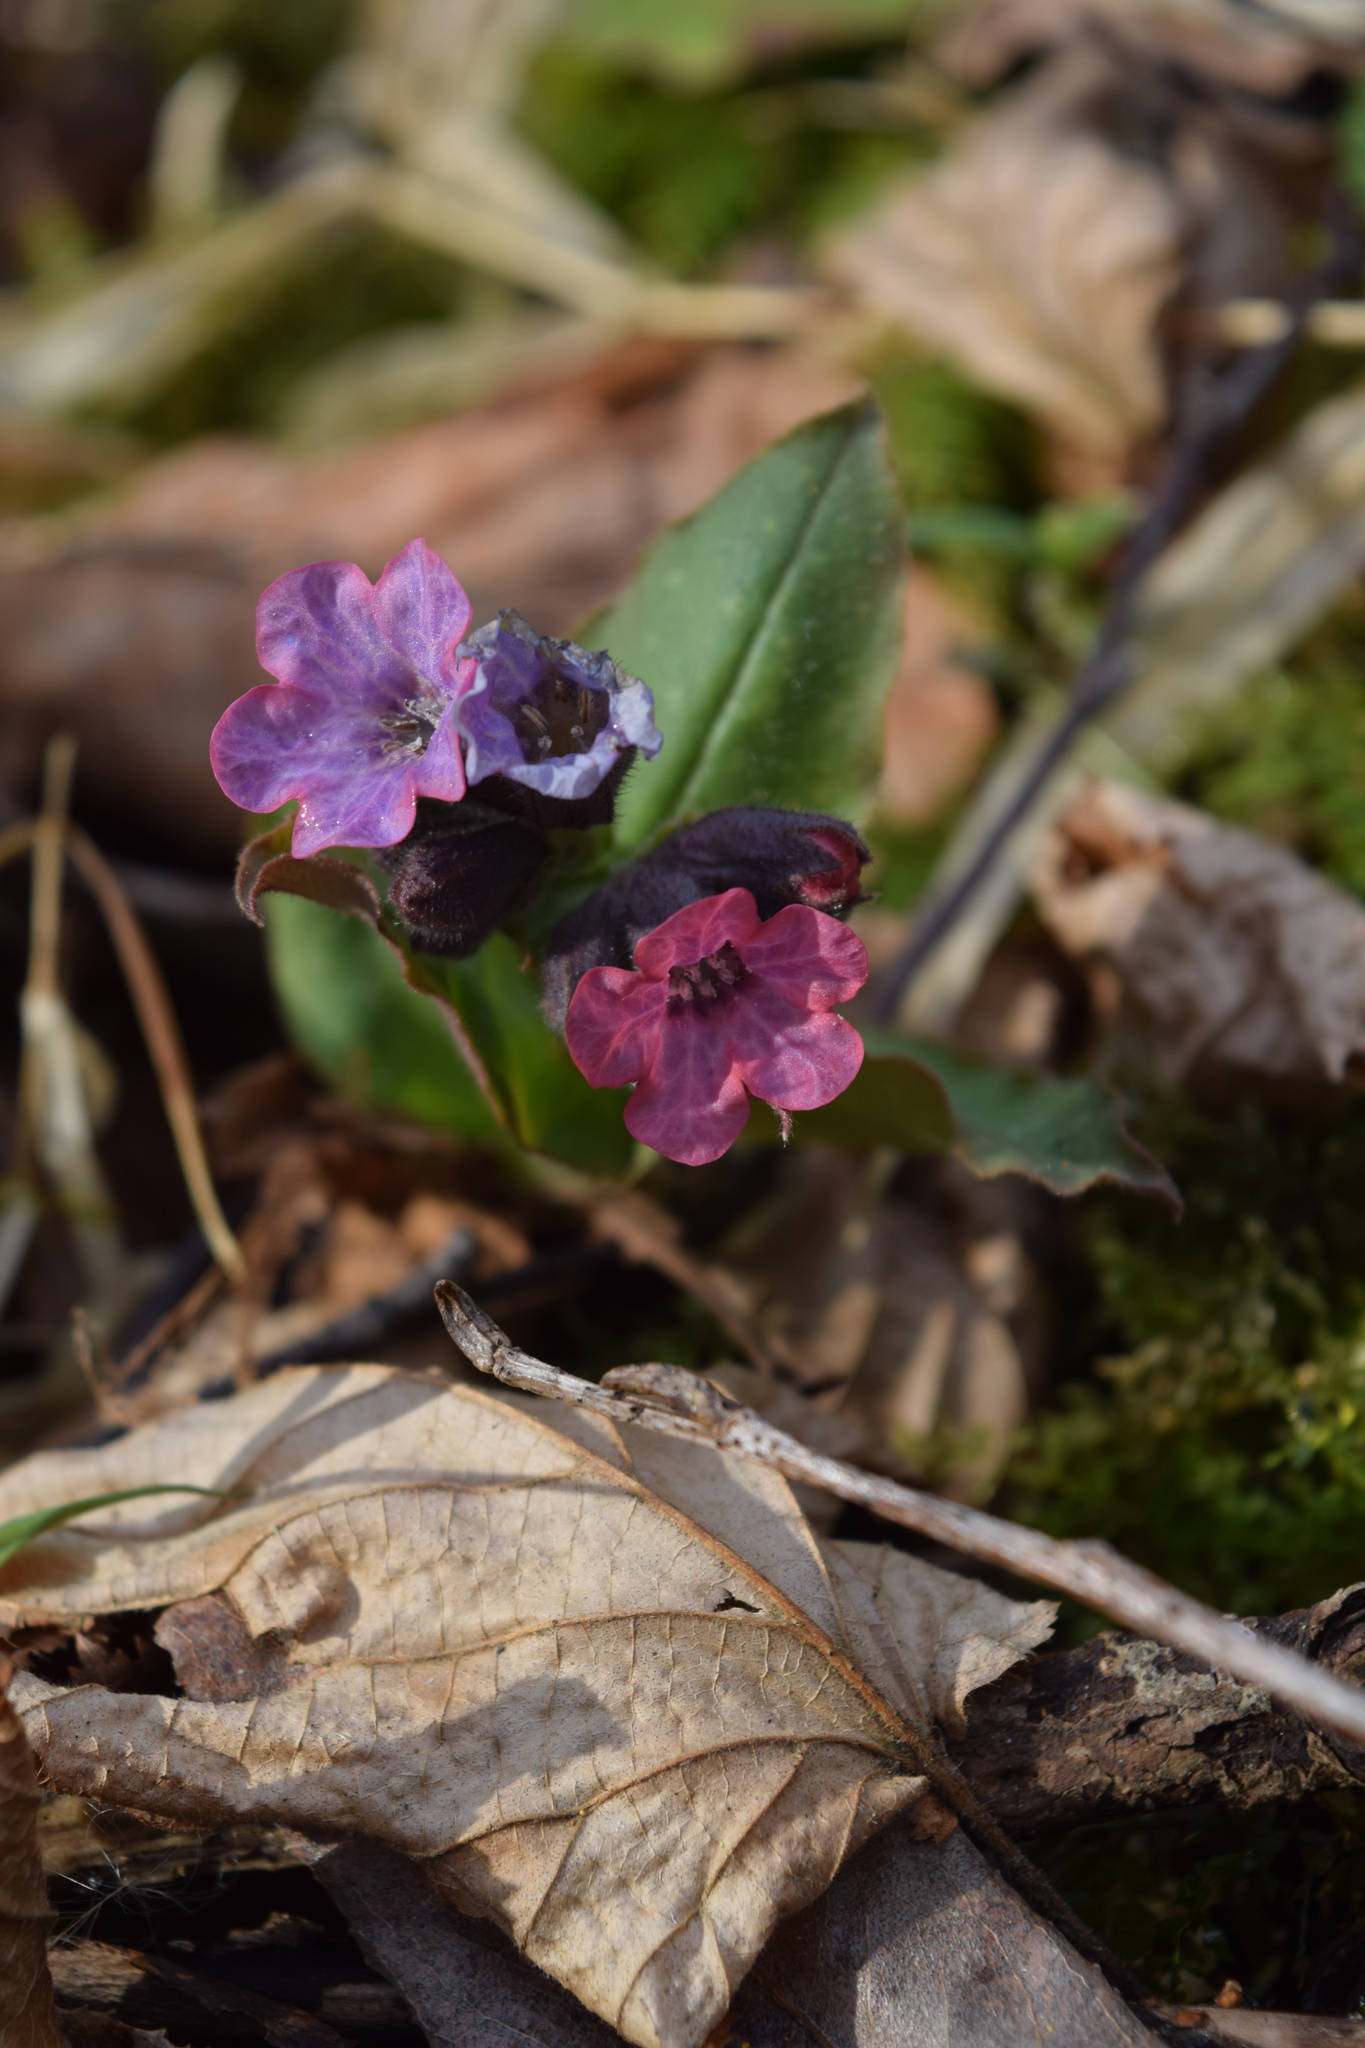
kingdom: Plantae
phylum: Tracheophyta
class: Magnoliopsida
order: Boraginales
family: Boraginaceae
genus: Pulmonaria
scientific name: Pulmonaria obscura
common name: Suffolk lungwort
